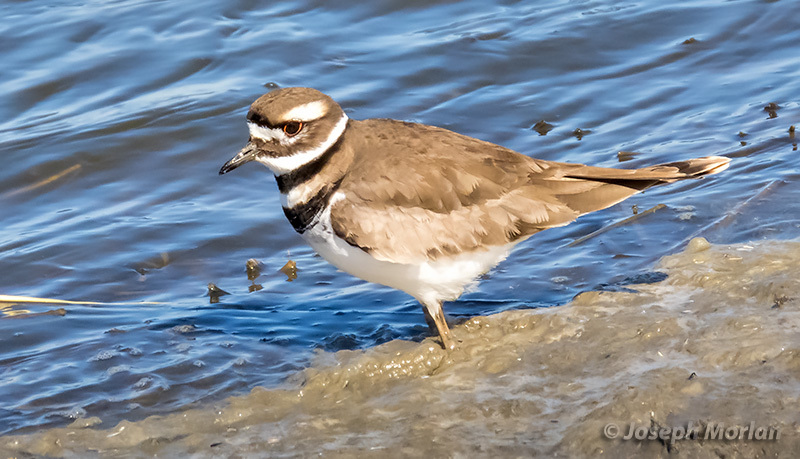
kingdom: Animalia
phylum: Chordata
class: Aves
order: Charadriiformes
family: Charadriidae
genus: Charadrius
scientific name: Charadrius vociferus
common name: Killdeer
